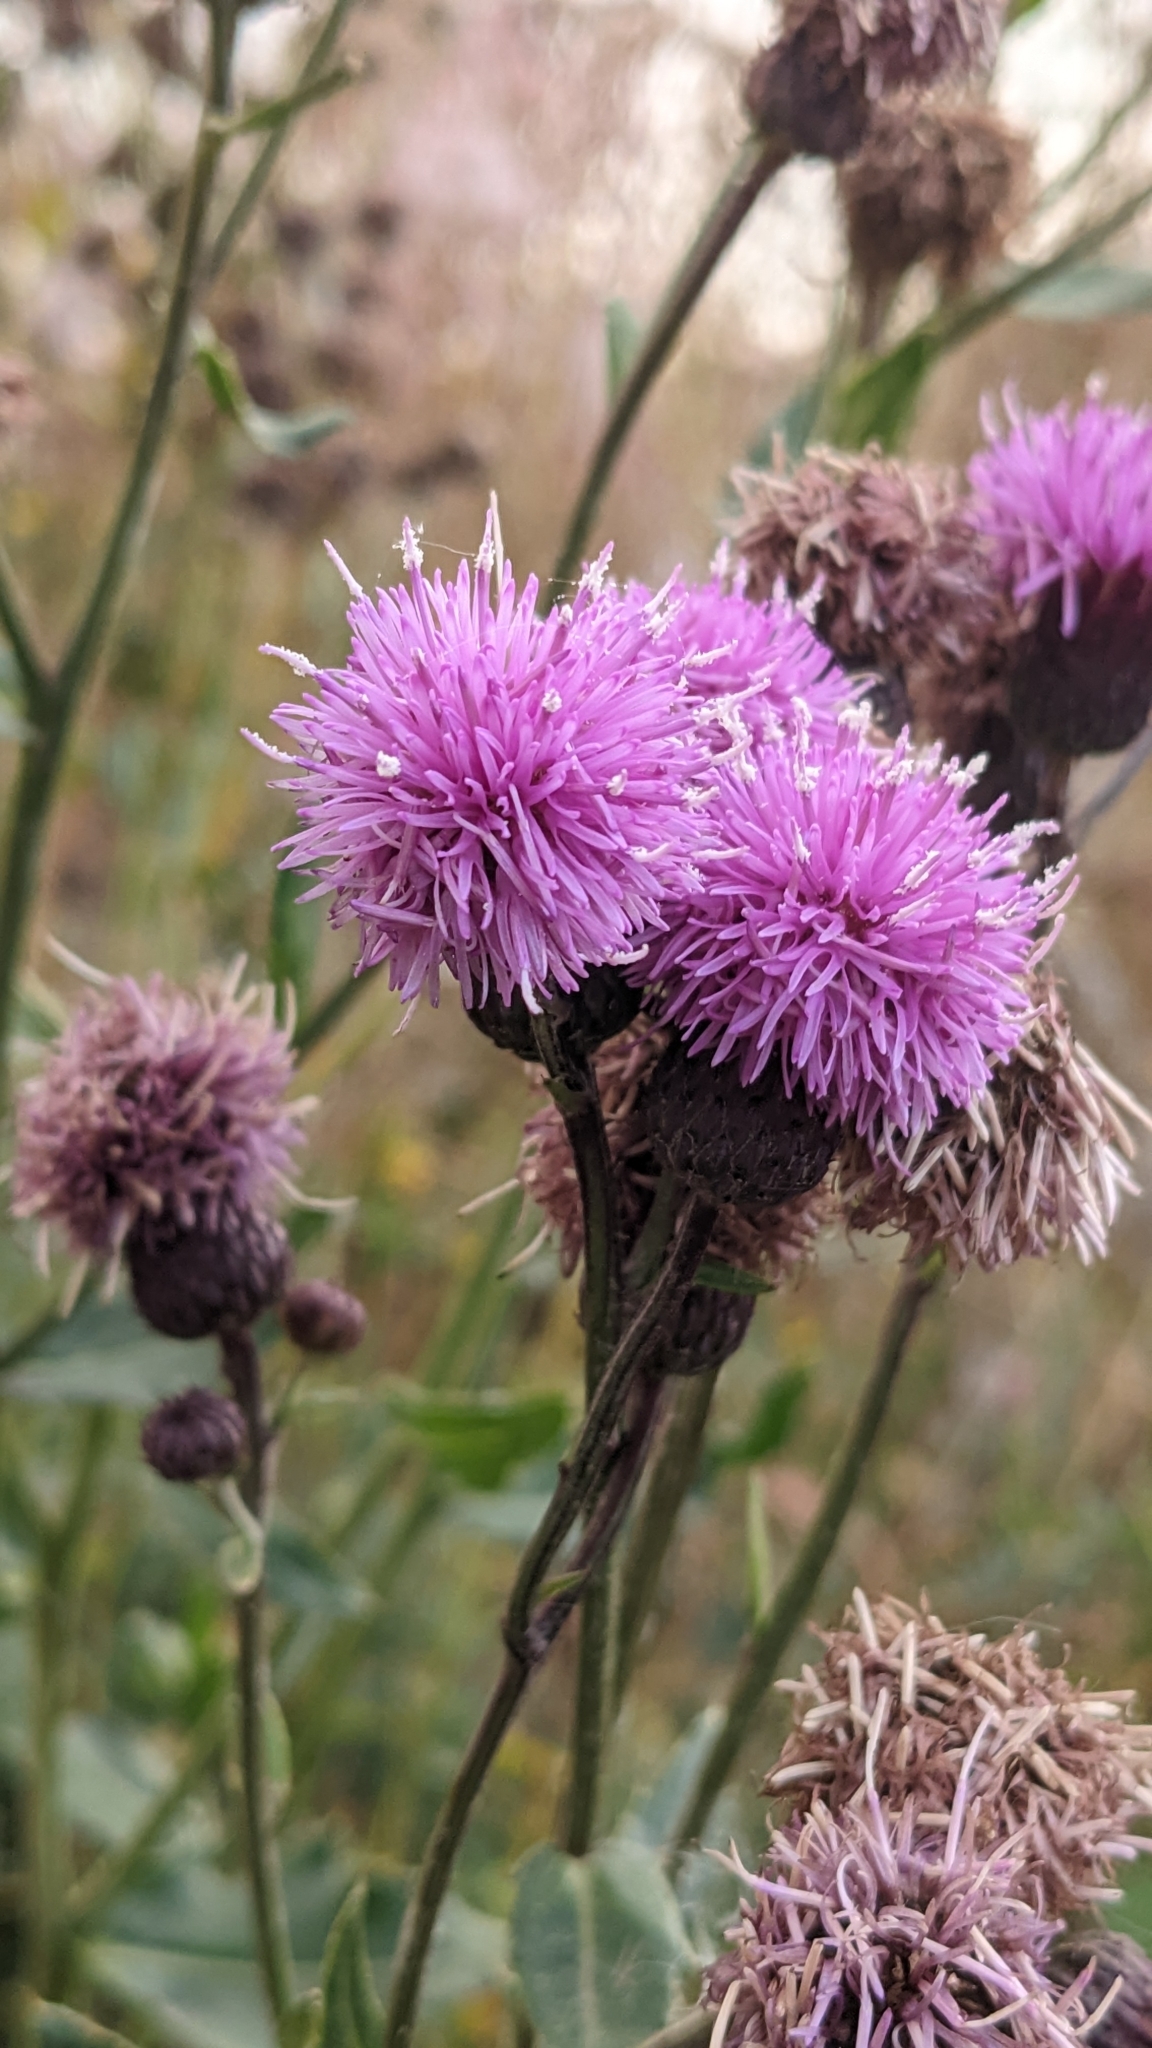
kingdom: Plantae
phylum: Tracheophyta
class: Magnoliopsida
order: Asterales
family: Asteraceae
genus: Cirsium
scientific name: Cirsium arvense
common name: Creeping thistle
